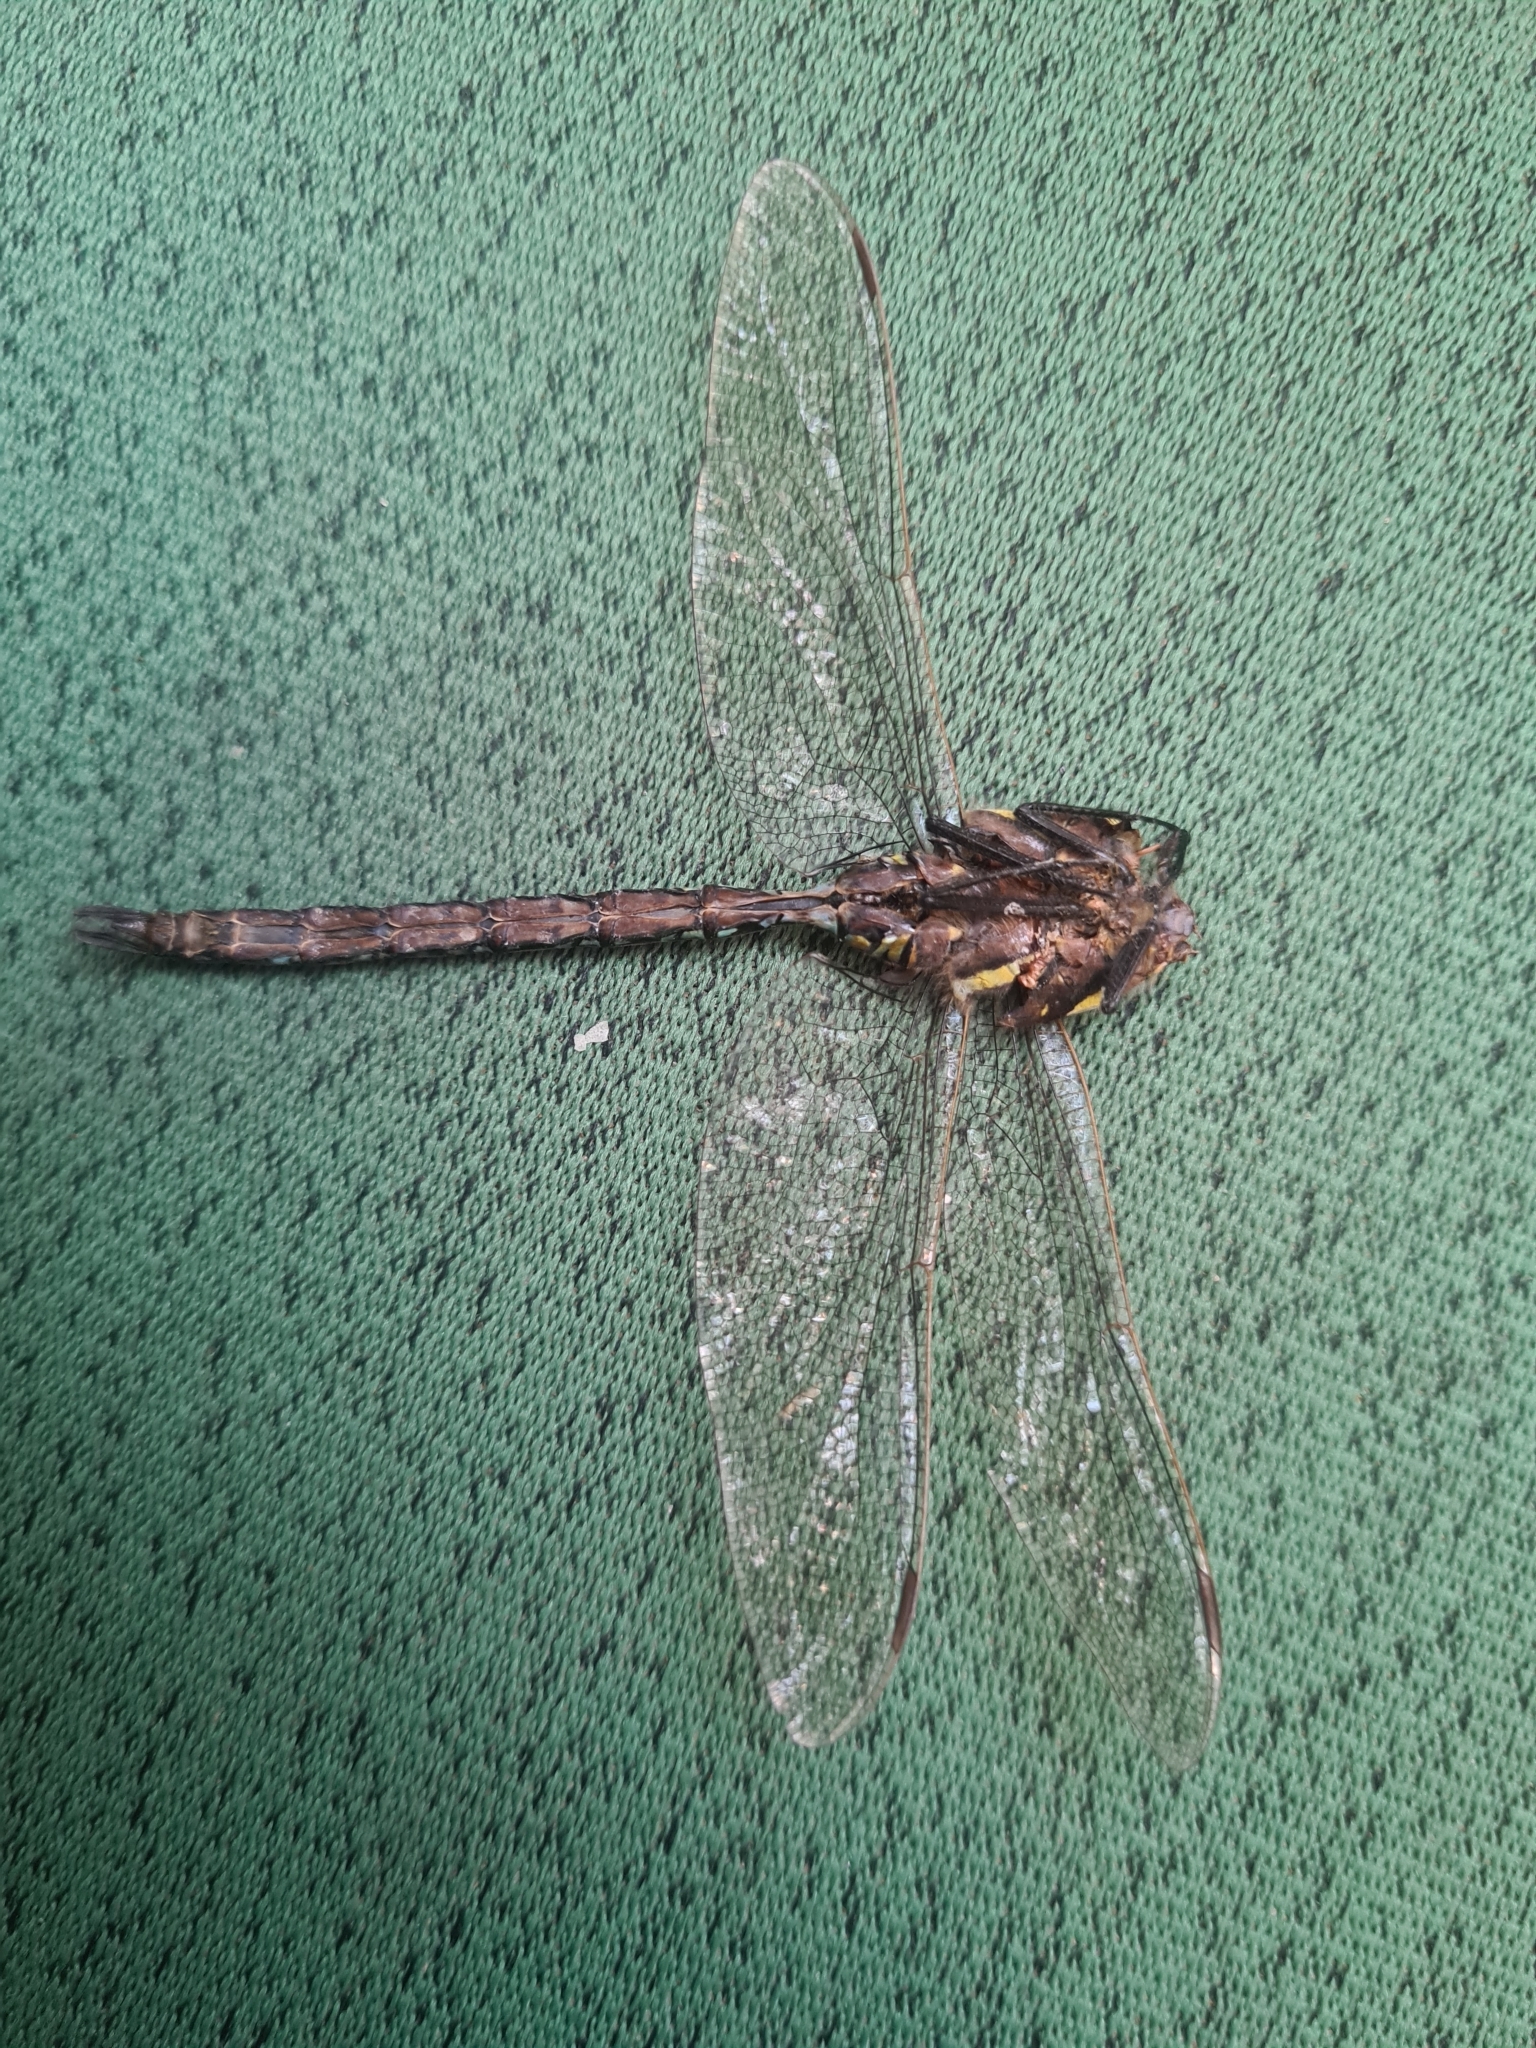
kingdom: Animalia
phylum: Arthropoda
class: Insecta
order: Odonata
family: Aeshnidae
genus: Aeshna
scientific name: Aeshna juncea
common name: Moorland hawker
